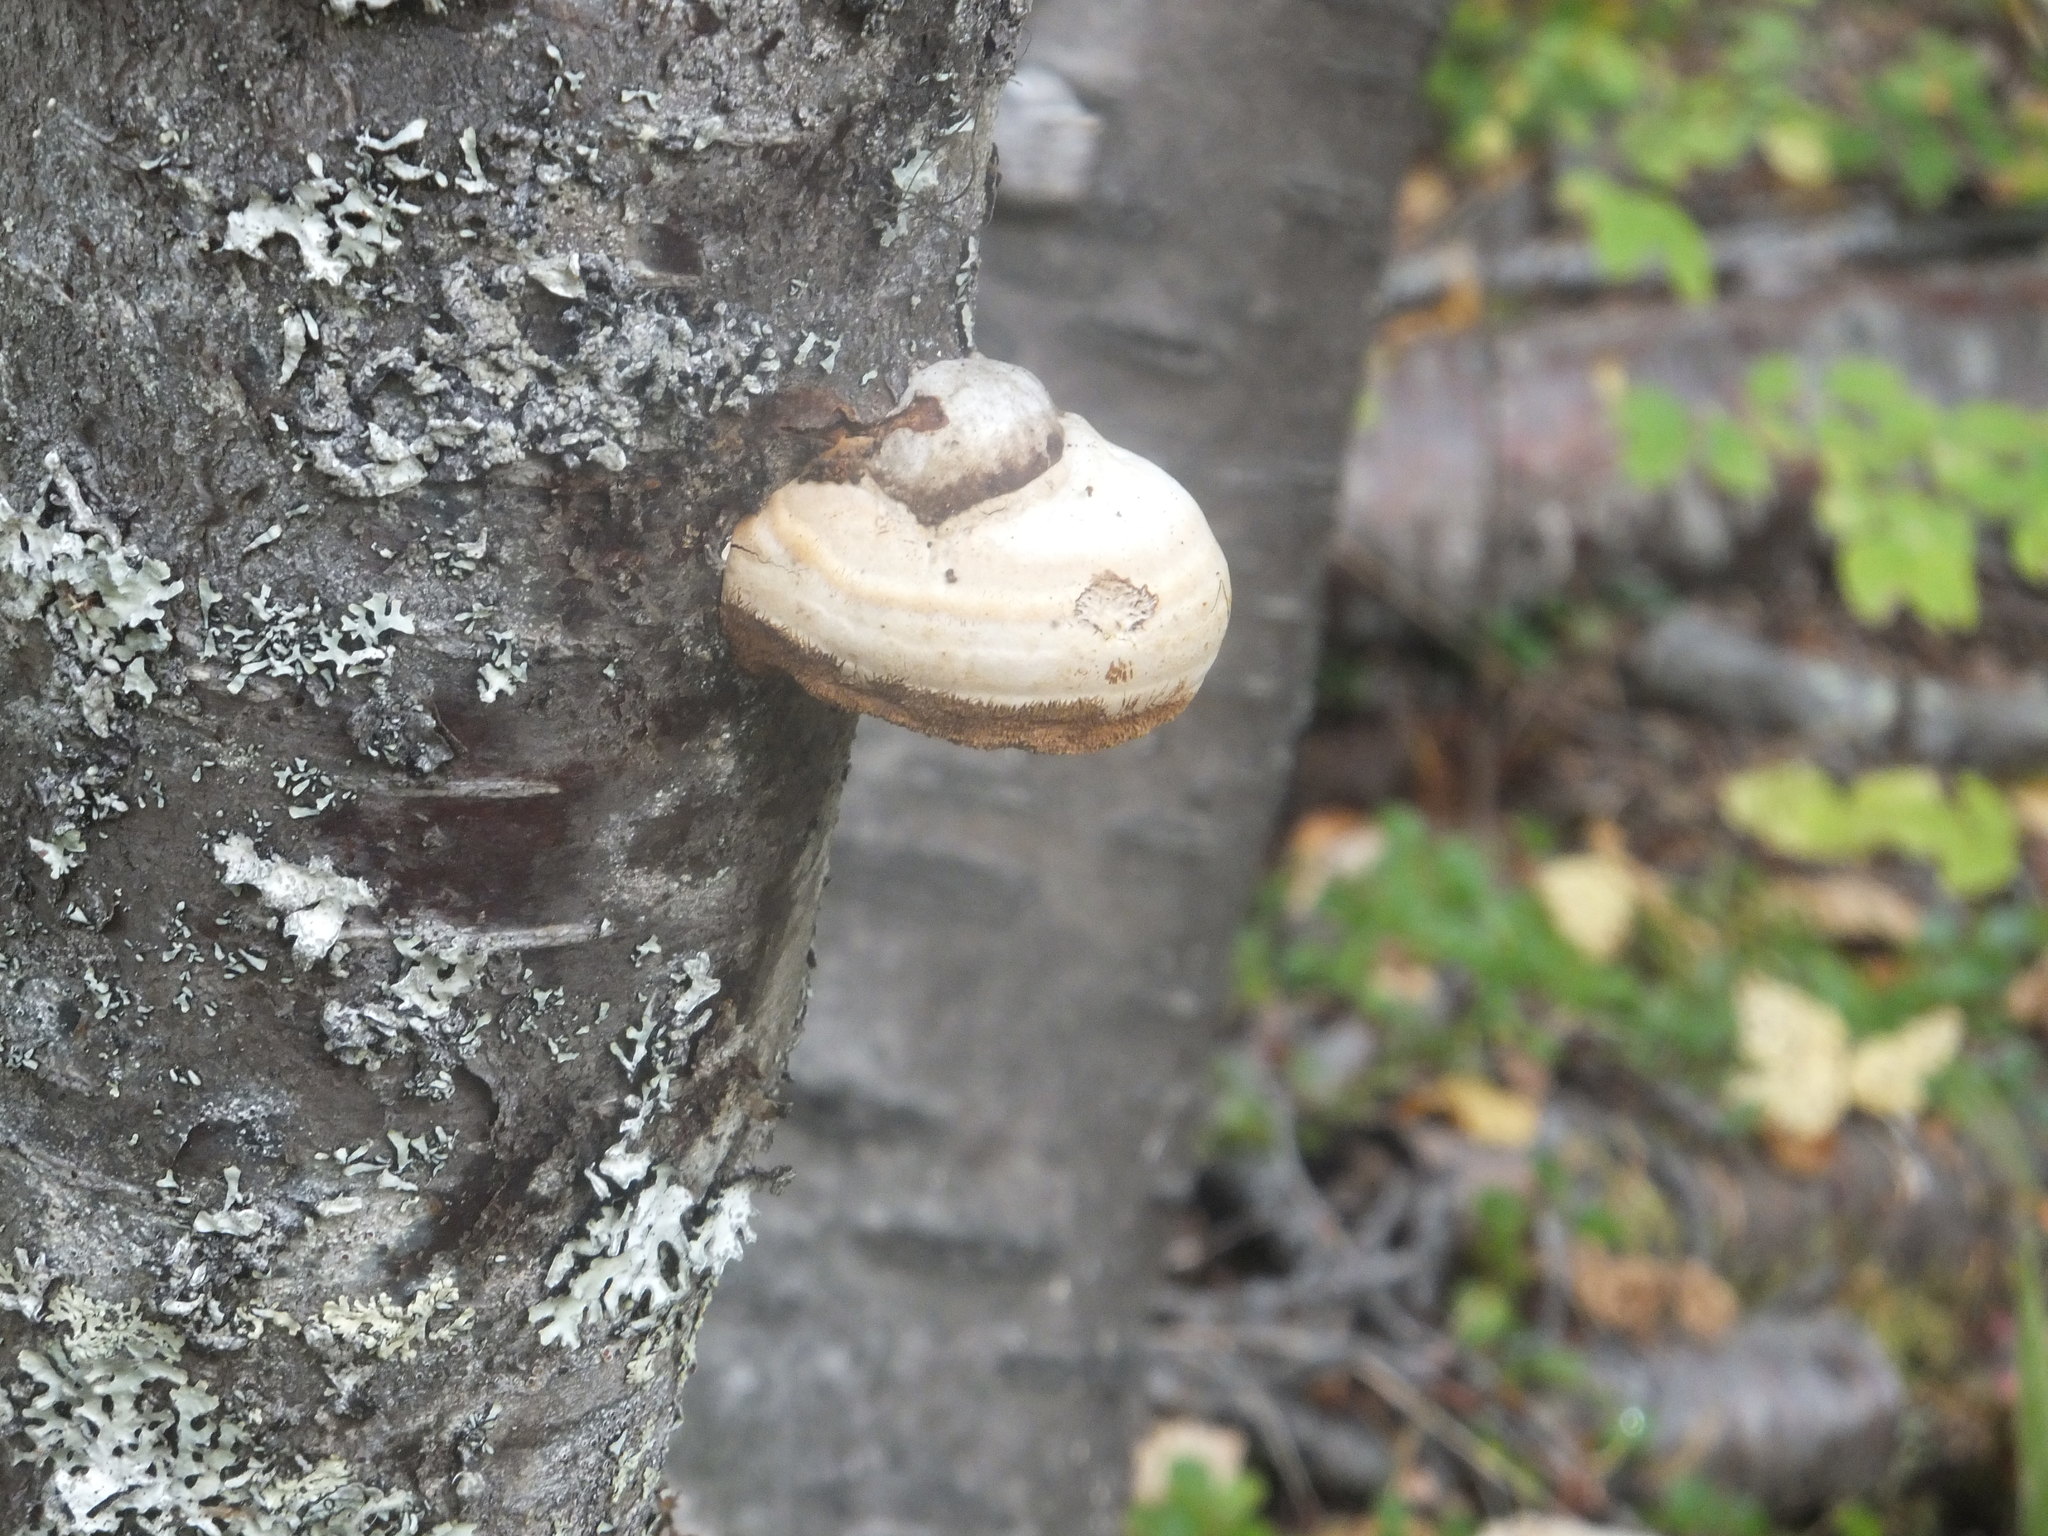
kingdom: Fungi
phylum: Basidiomycota
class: Agaricomycetes
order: Polyporales
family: Polyporaceae
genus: Fomes
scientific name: Fomes fomentarius
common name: Hoof fungus
